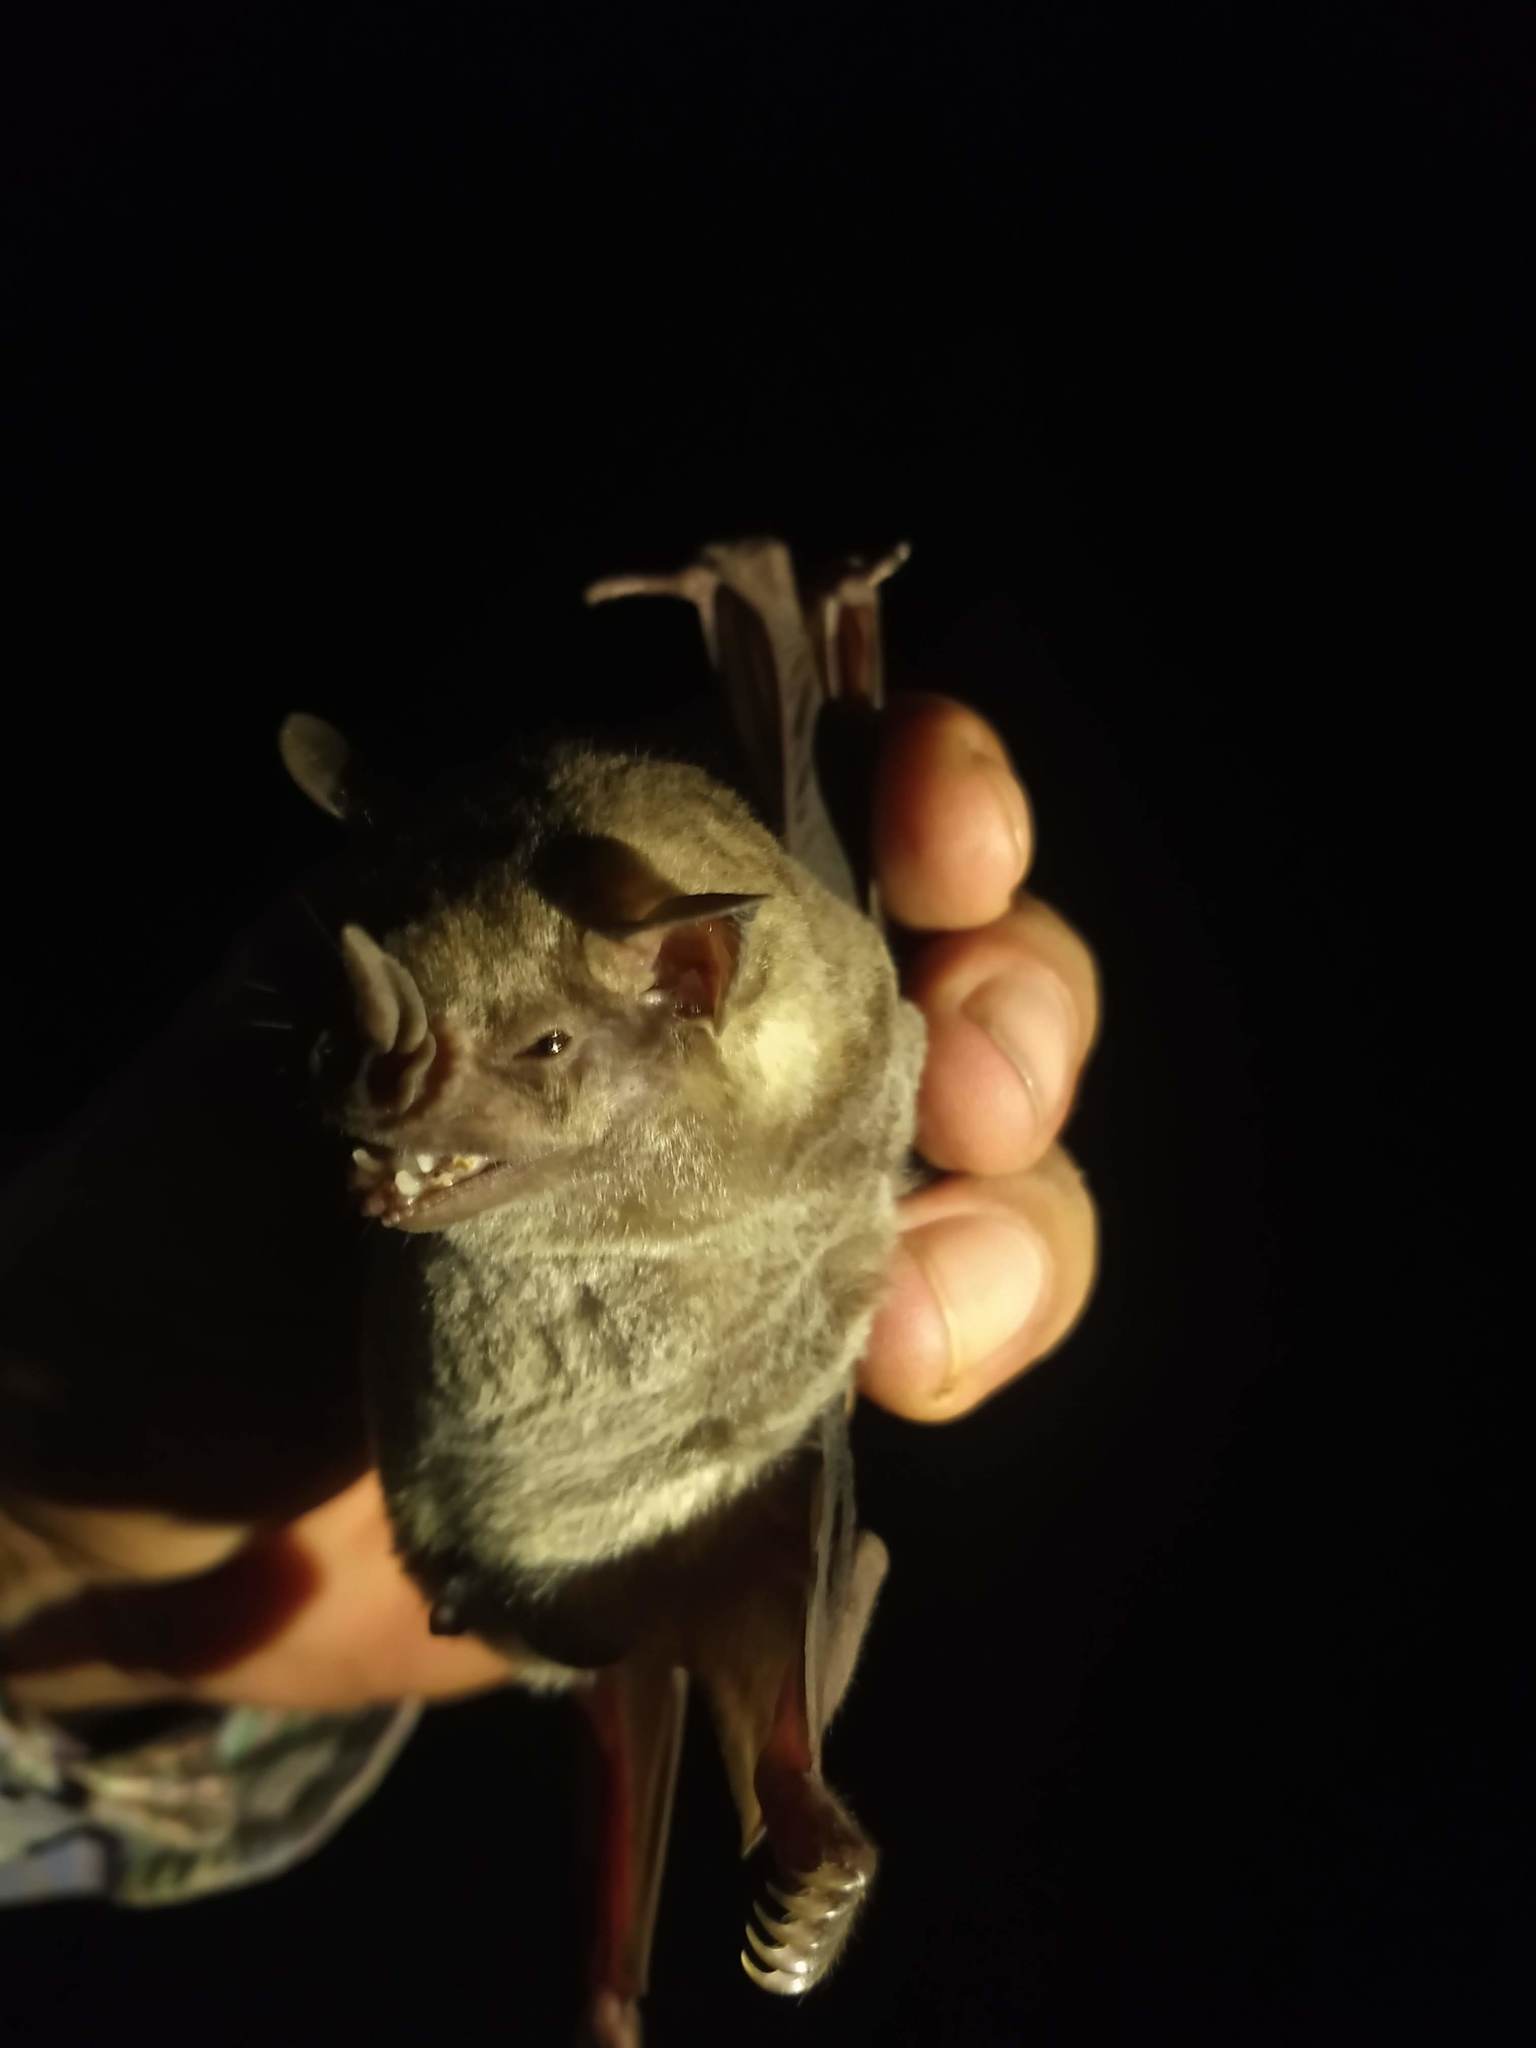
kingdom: Animalia
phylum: Chordata
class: Mammalia
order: Chiroptera
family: Phyllostomidae
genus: Artibeus
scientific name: Artibeus jamaicensis
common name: Jamaican fruit-eating bat
